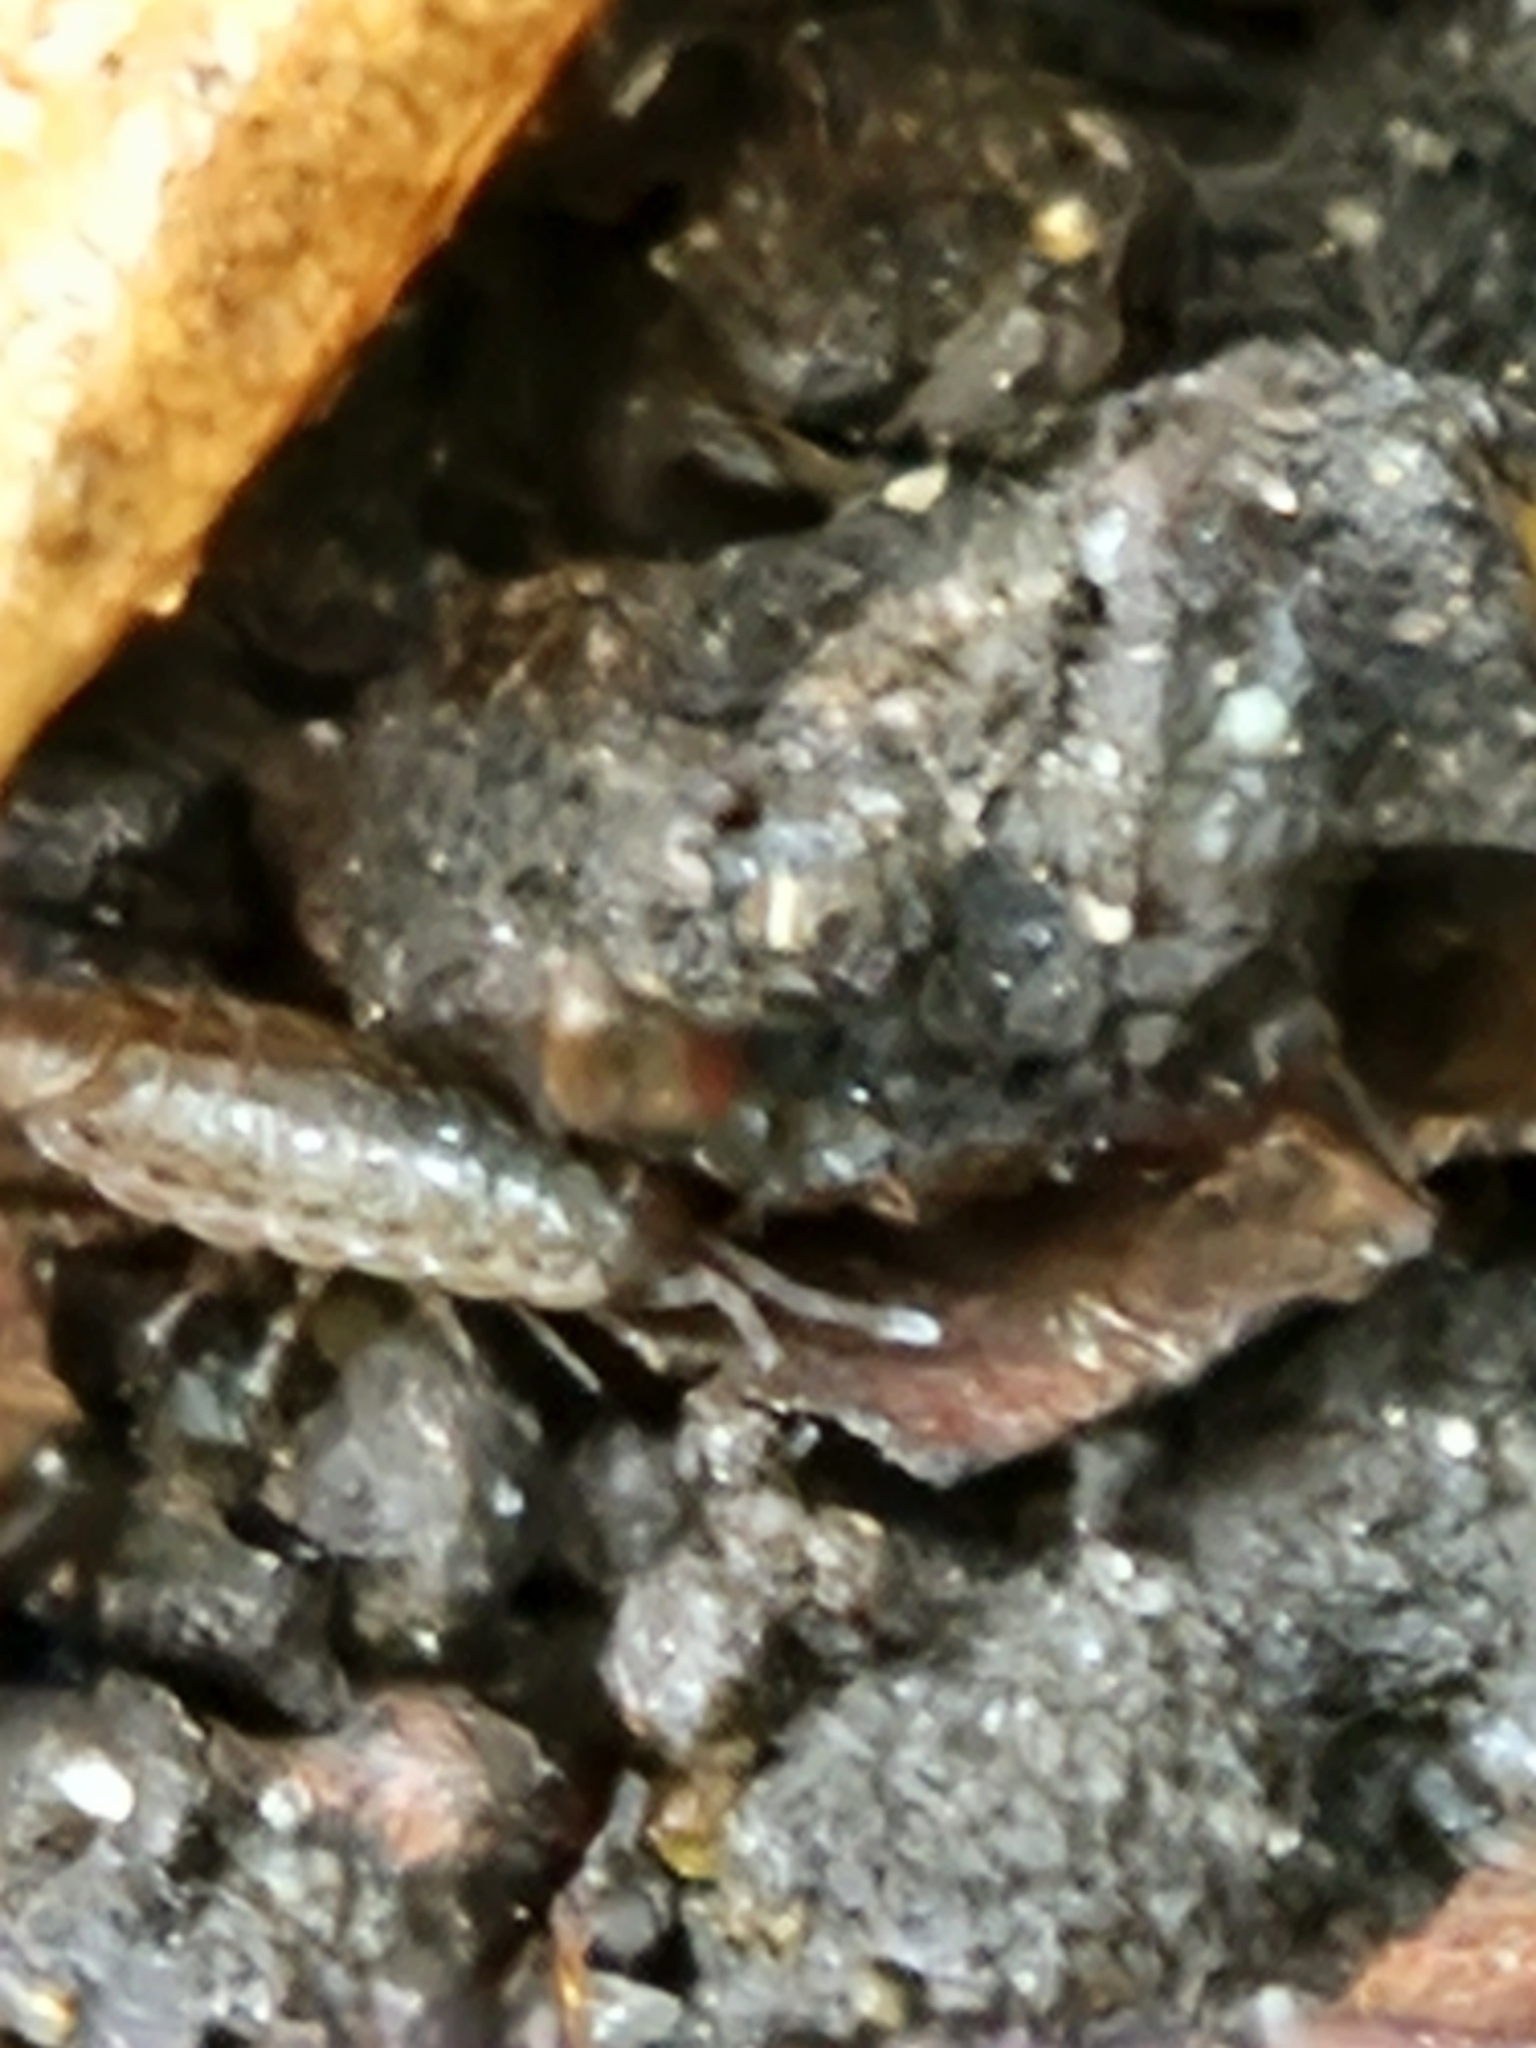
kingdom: Animalia
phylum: Arthropoda
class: Malacostraca
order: Isopoda
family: Philosciidae
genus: Philoscia
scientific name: Philoscia muscorum
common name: Common striped woodlouse
